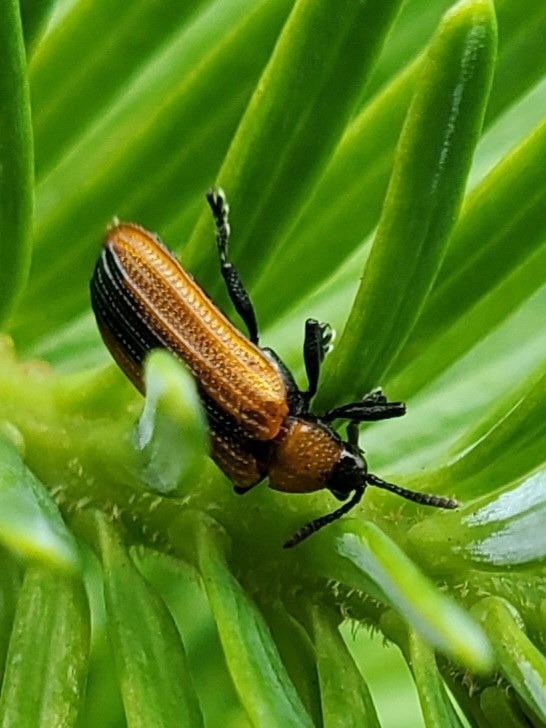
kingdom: Animalia
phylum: Arthropoda
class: Insecta
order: Coleoptera
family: Chrysomelidae
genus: Odontota
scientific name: Odontota dorsalis
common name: Locust leaf-miner beetle
